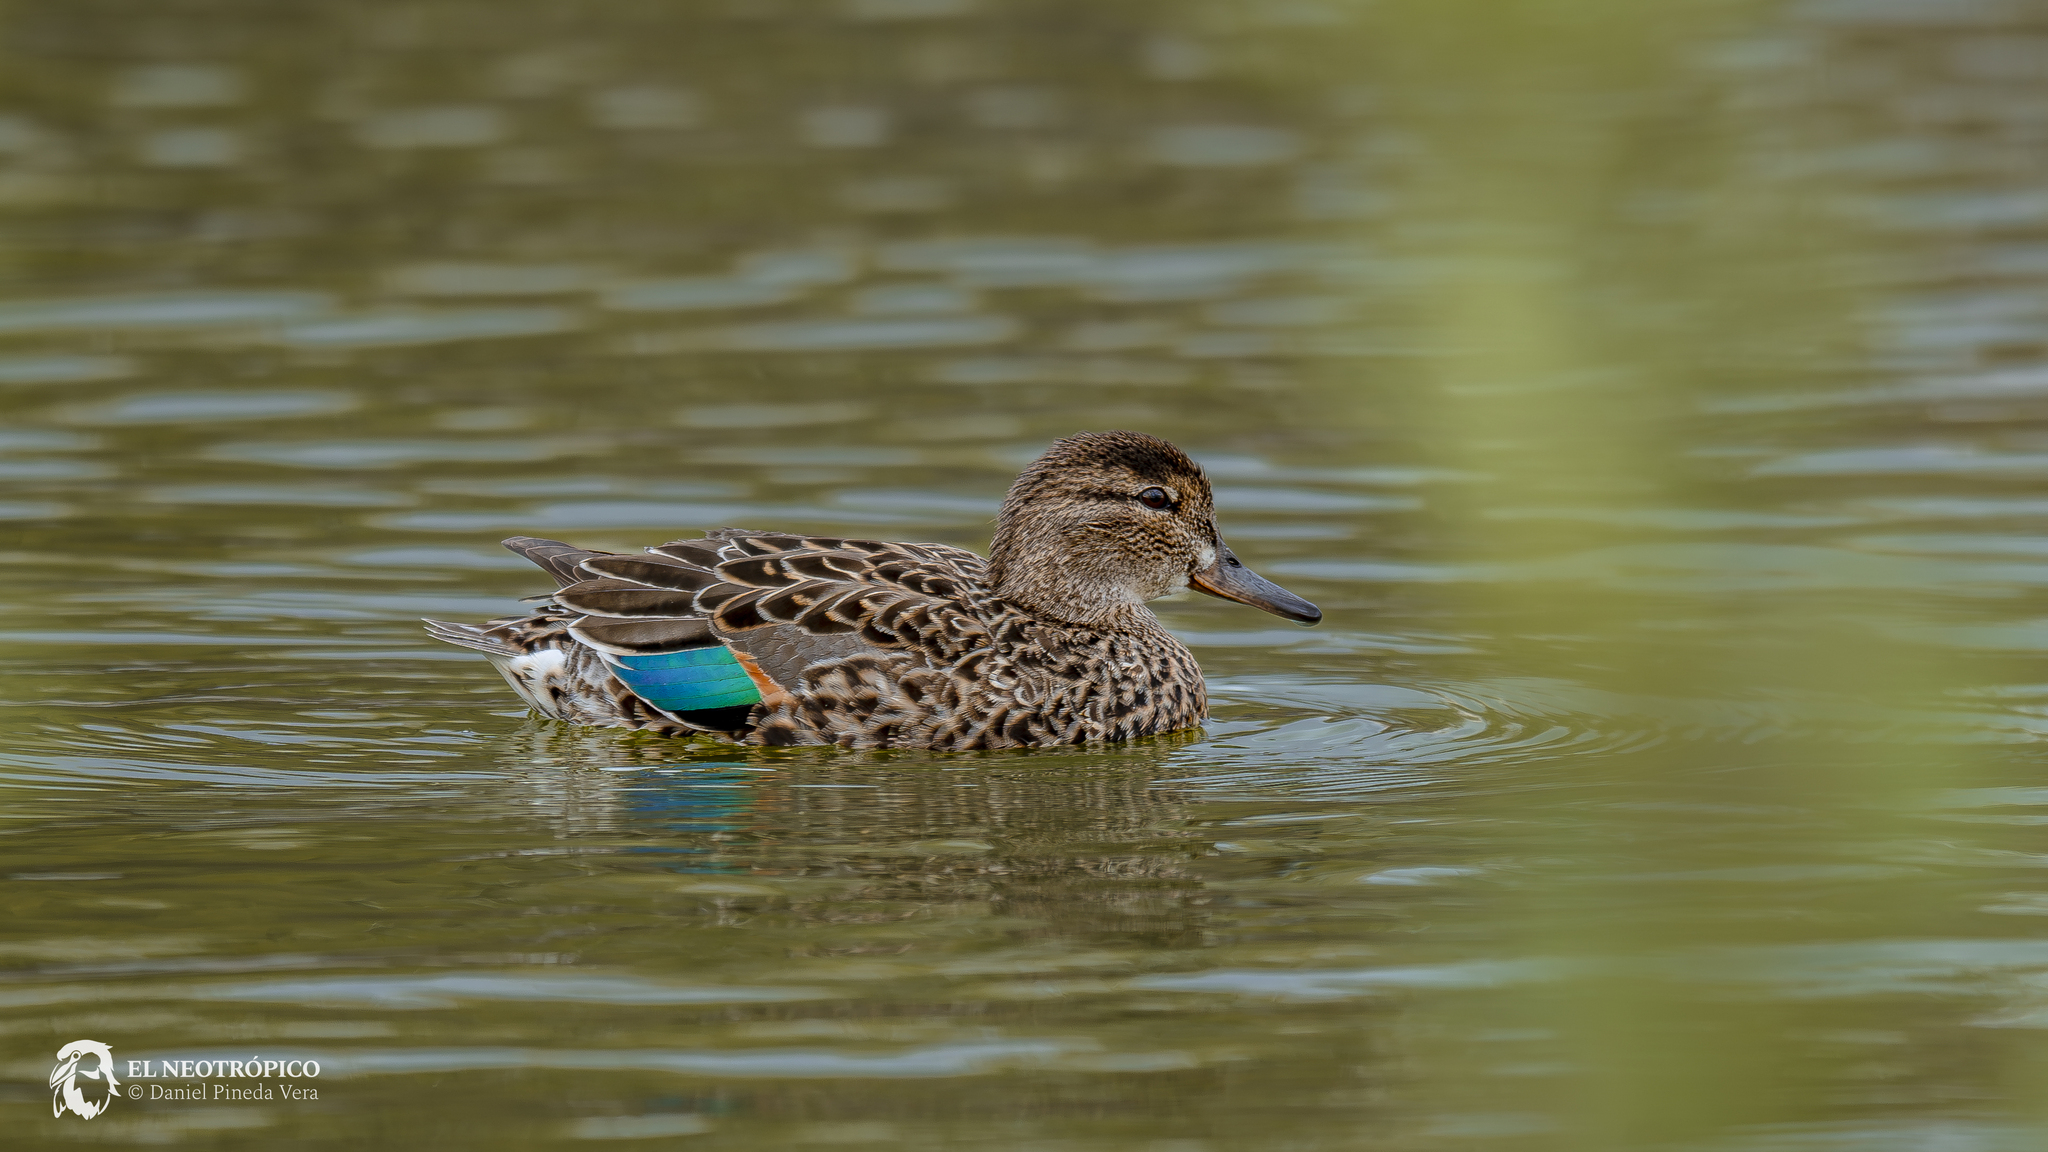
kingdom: Animalia
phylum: Chordata
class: Aves
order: Anseriformes
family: Anatidae
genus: Anas
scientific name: Anas crecca
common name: Eurasian teal
